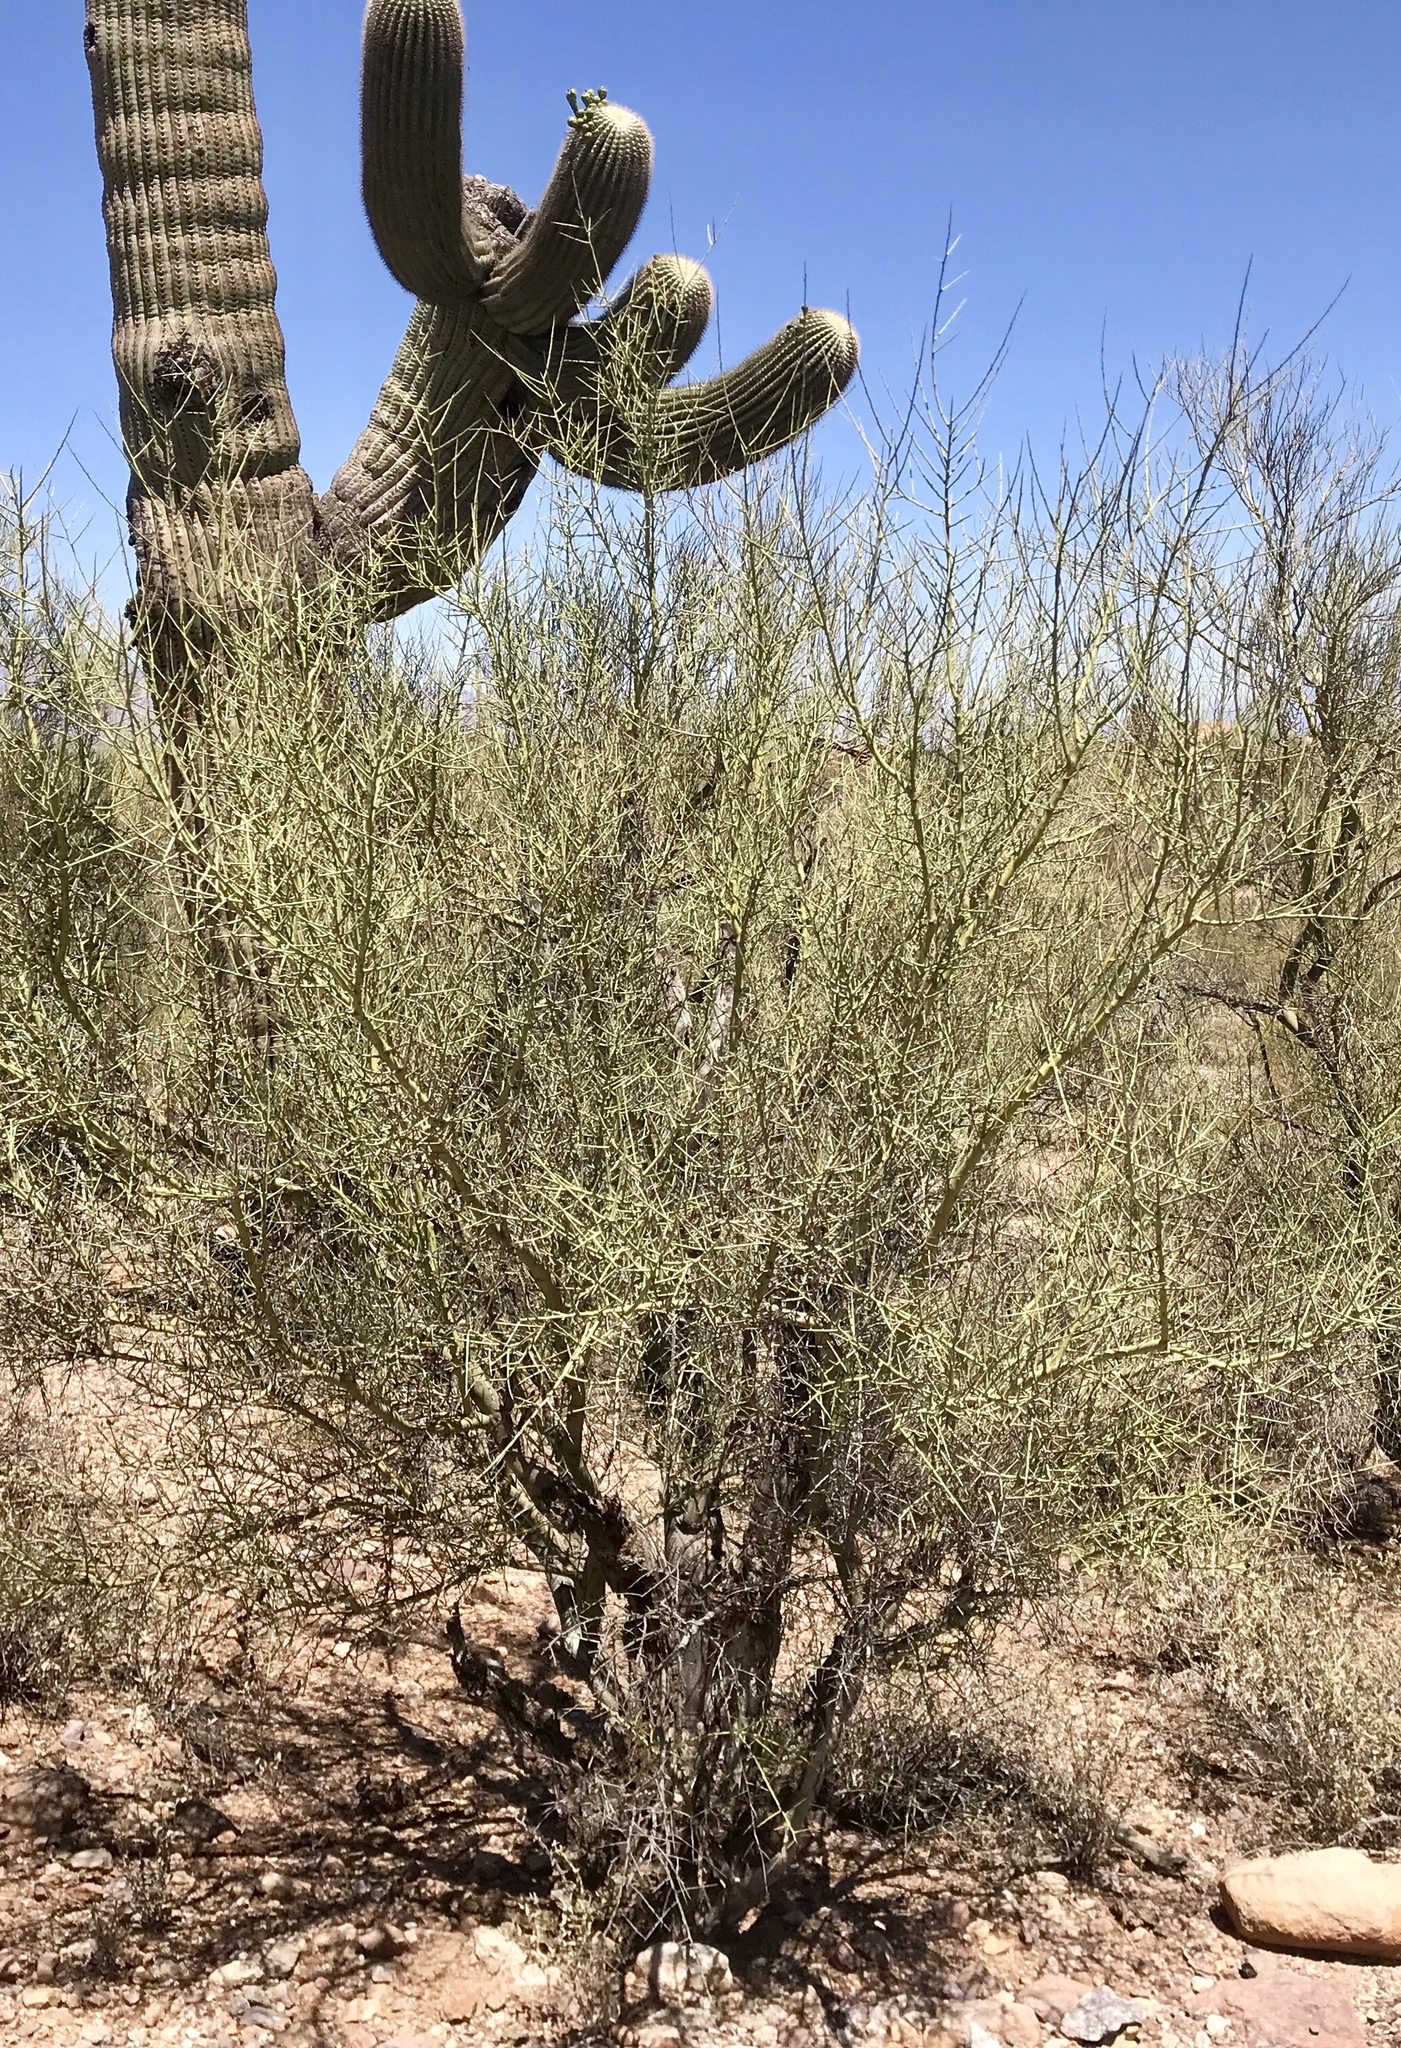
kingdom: Plantae
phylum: Tracheophyta
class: Magnoliopsida
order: Fabales
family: Fabaceae
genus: Parkinsonia
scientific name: Parkinsonia microphylla
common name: Yellow paloverde
